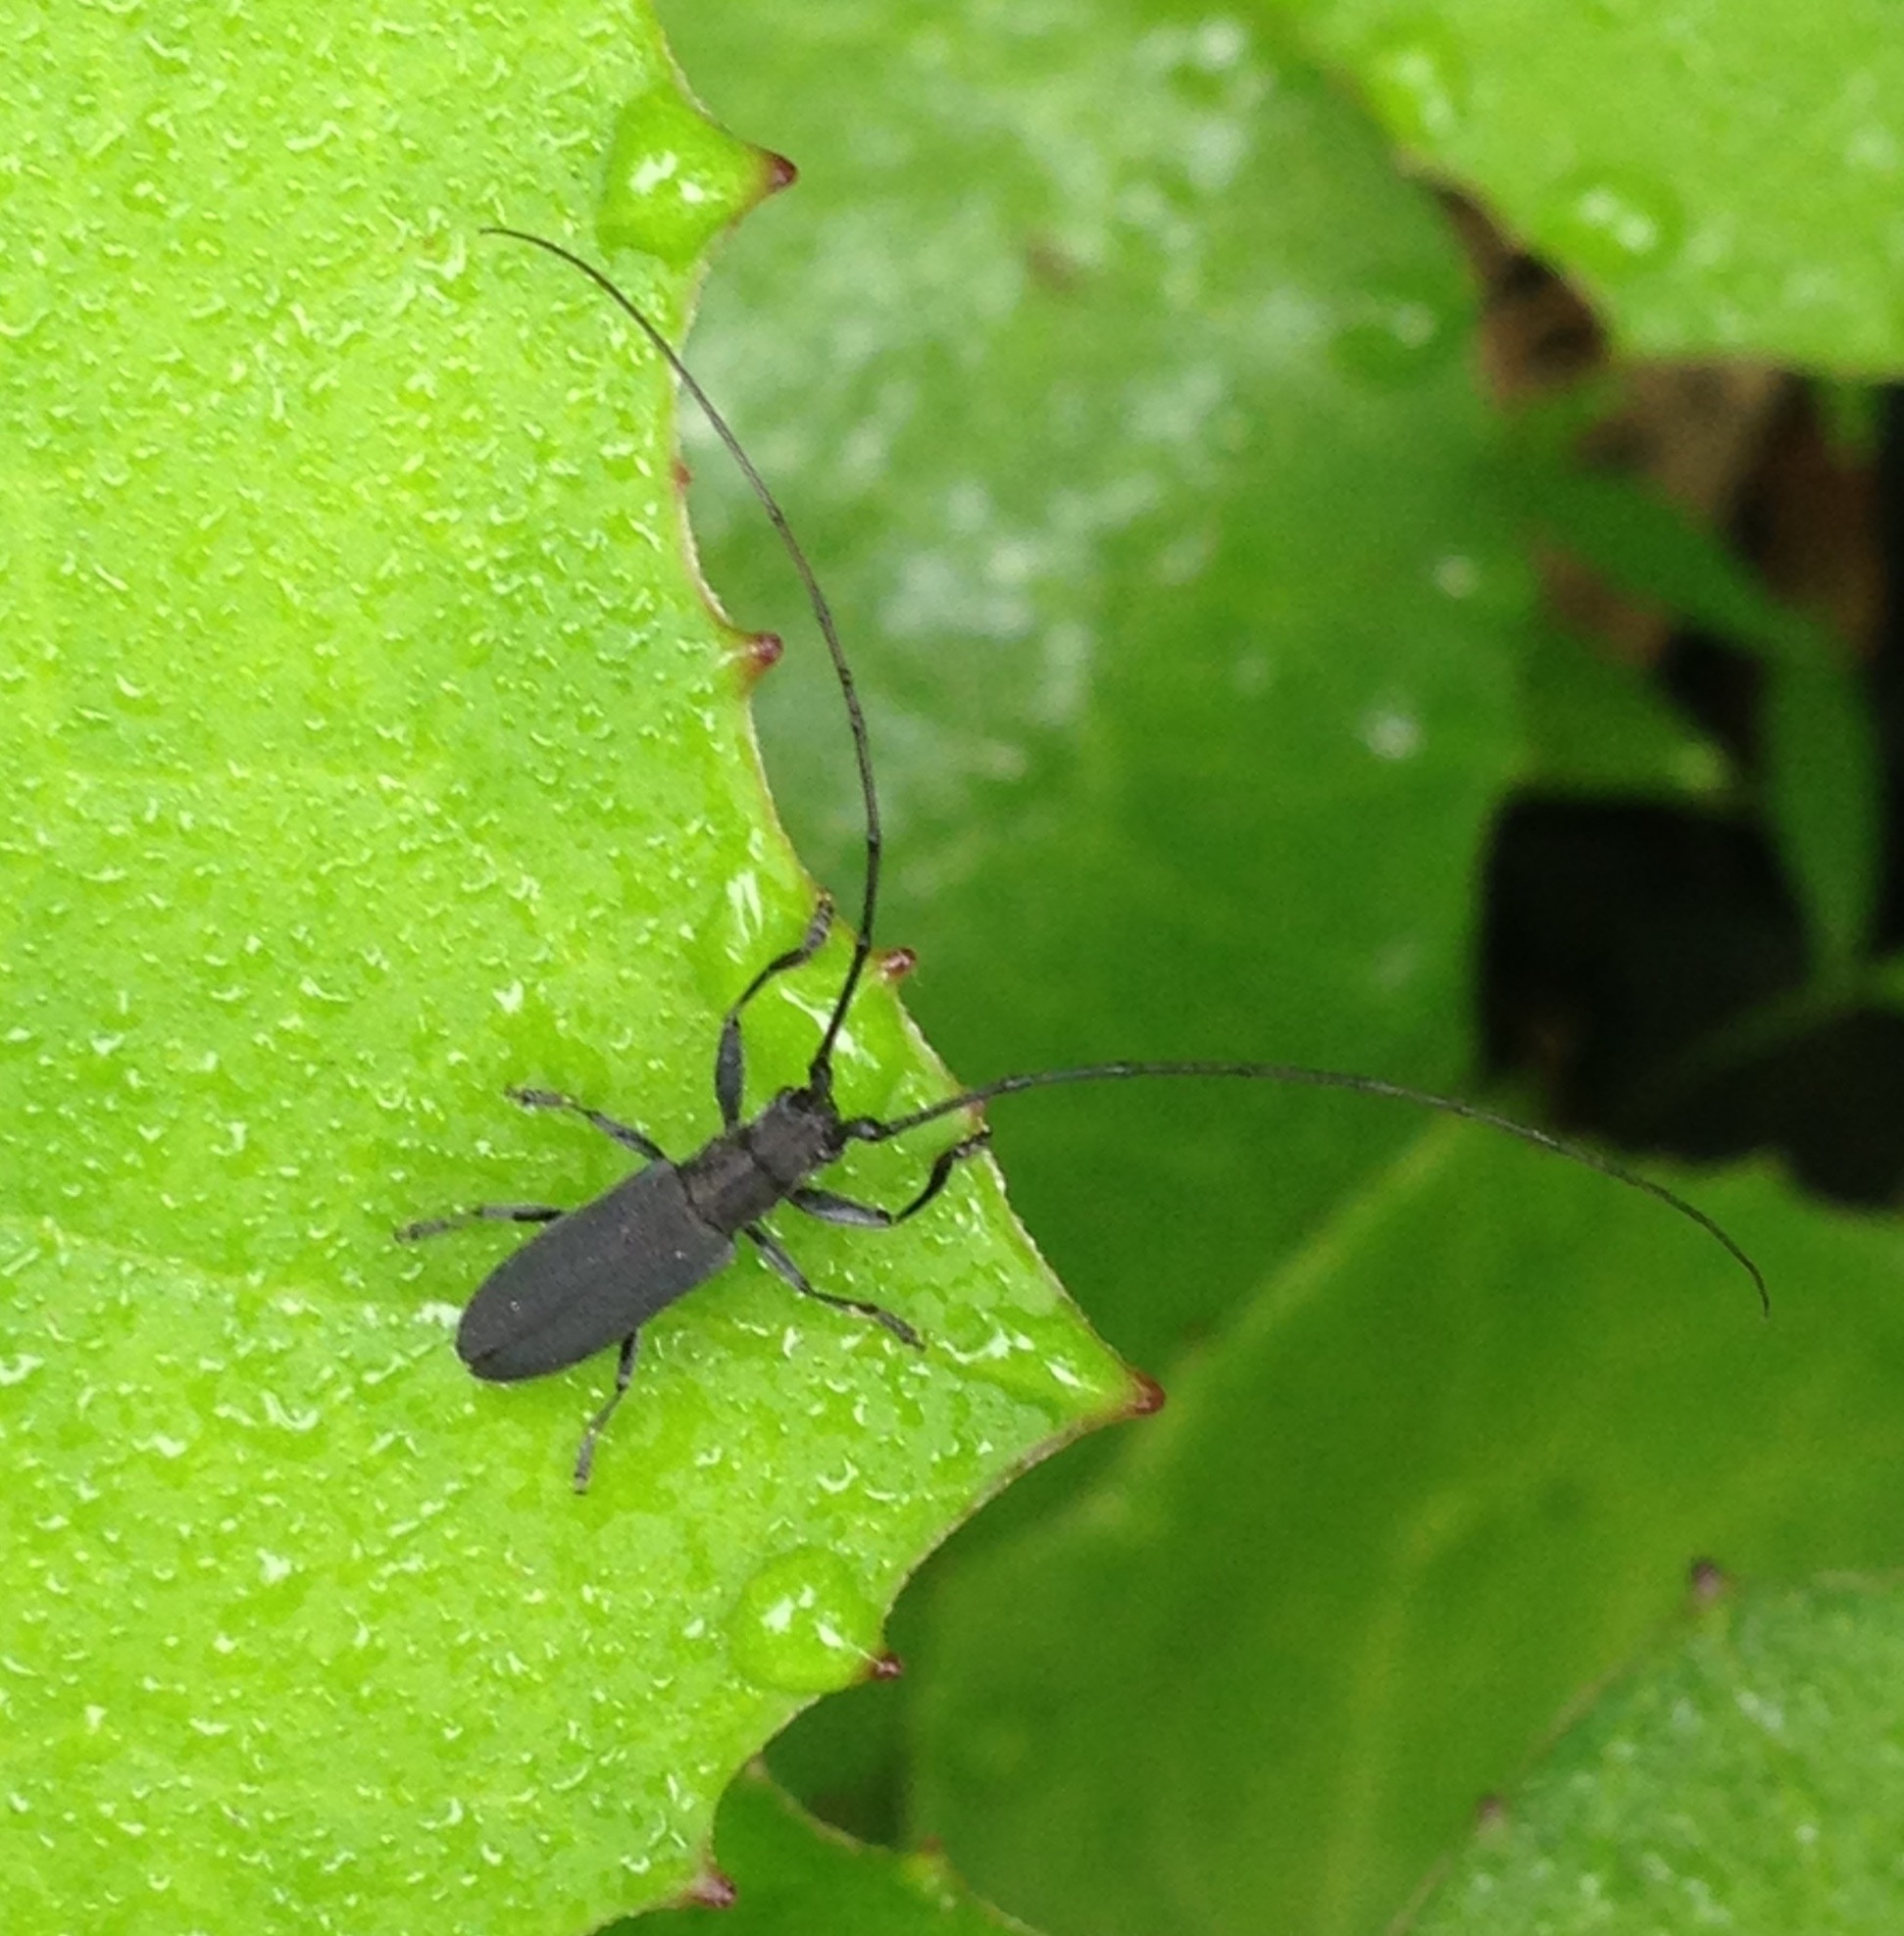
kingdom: Animalia
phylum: Arthropoda
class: Insecta
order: Coleoptera
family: Cerambycidae
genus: Dorcaschema
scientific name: Dorcaschema nigrum
